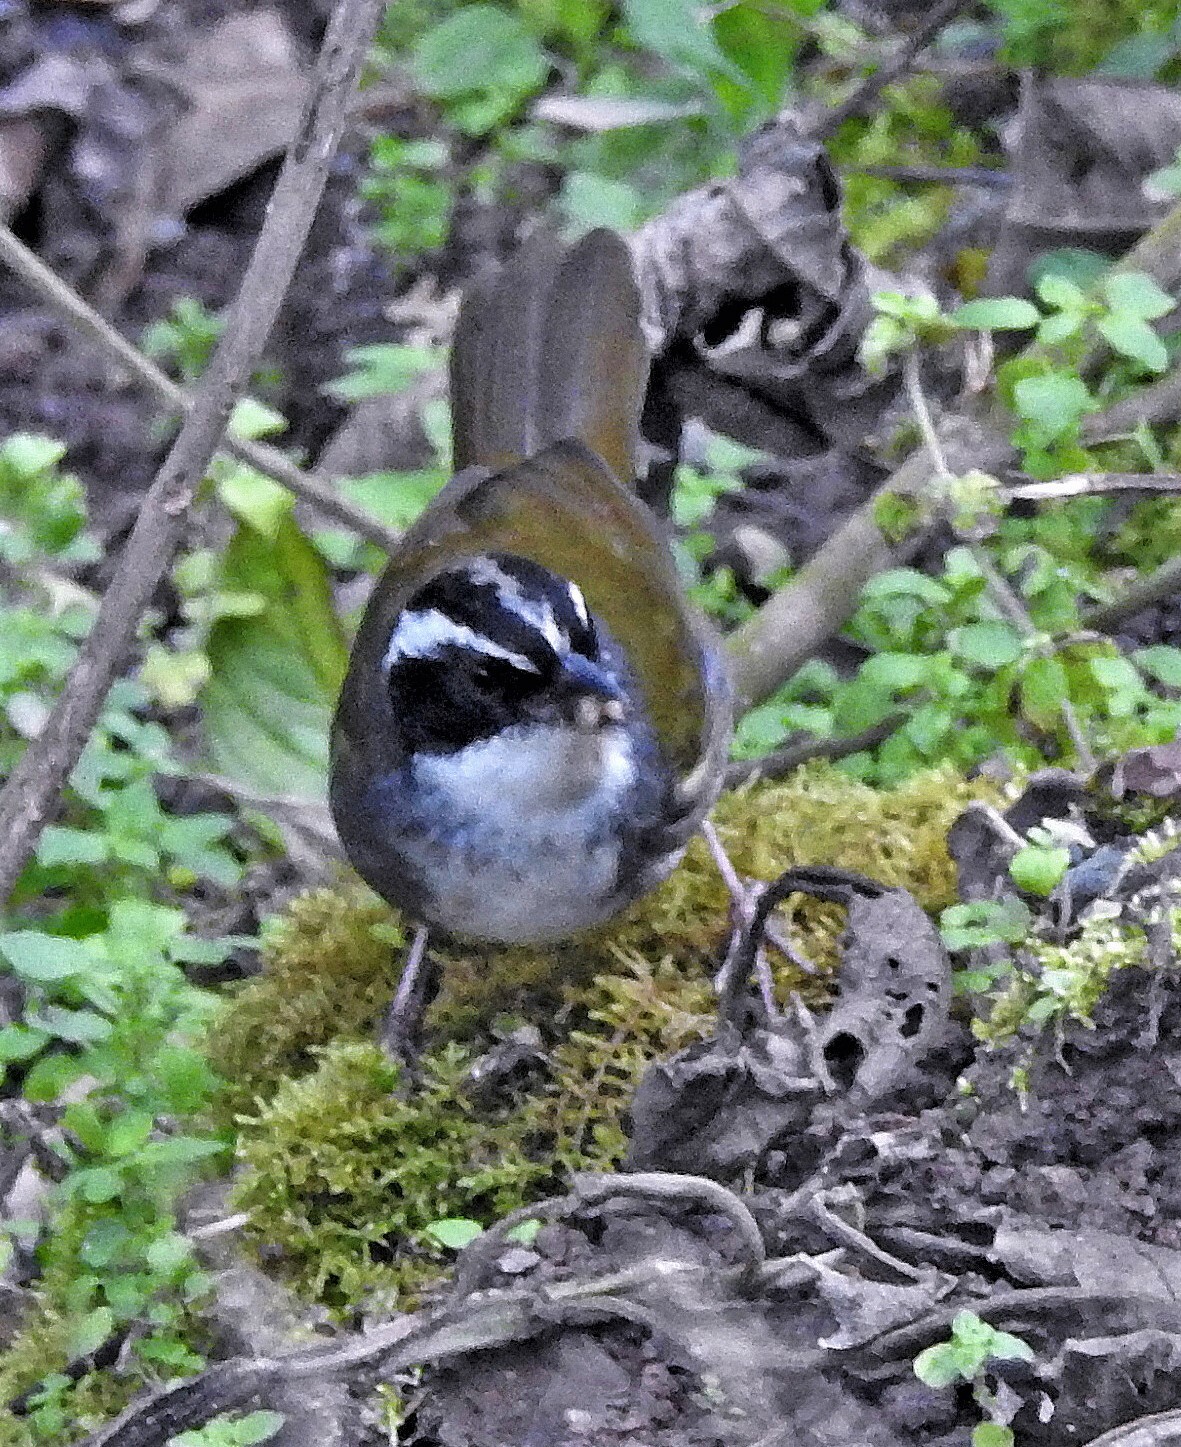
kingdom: Animalia
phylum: Chordata
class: Aves
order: Passeriformes
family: Passerellidae
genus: Arremon
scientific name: Arremon torquatus
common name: White-browed brushfinch
